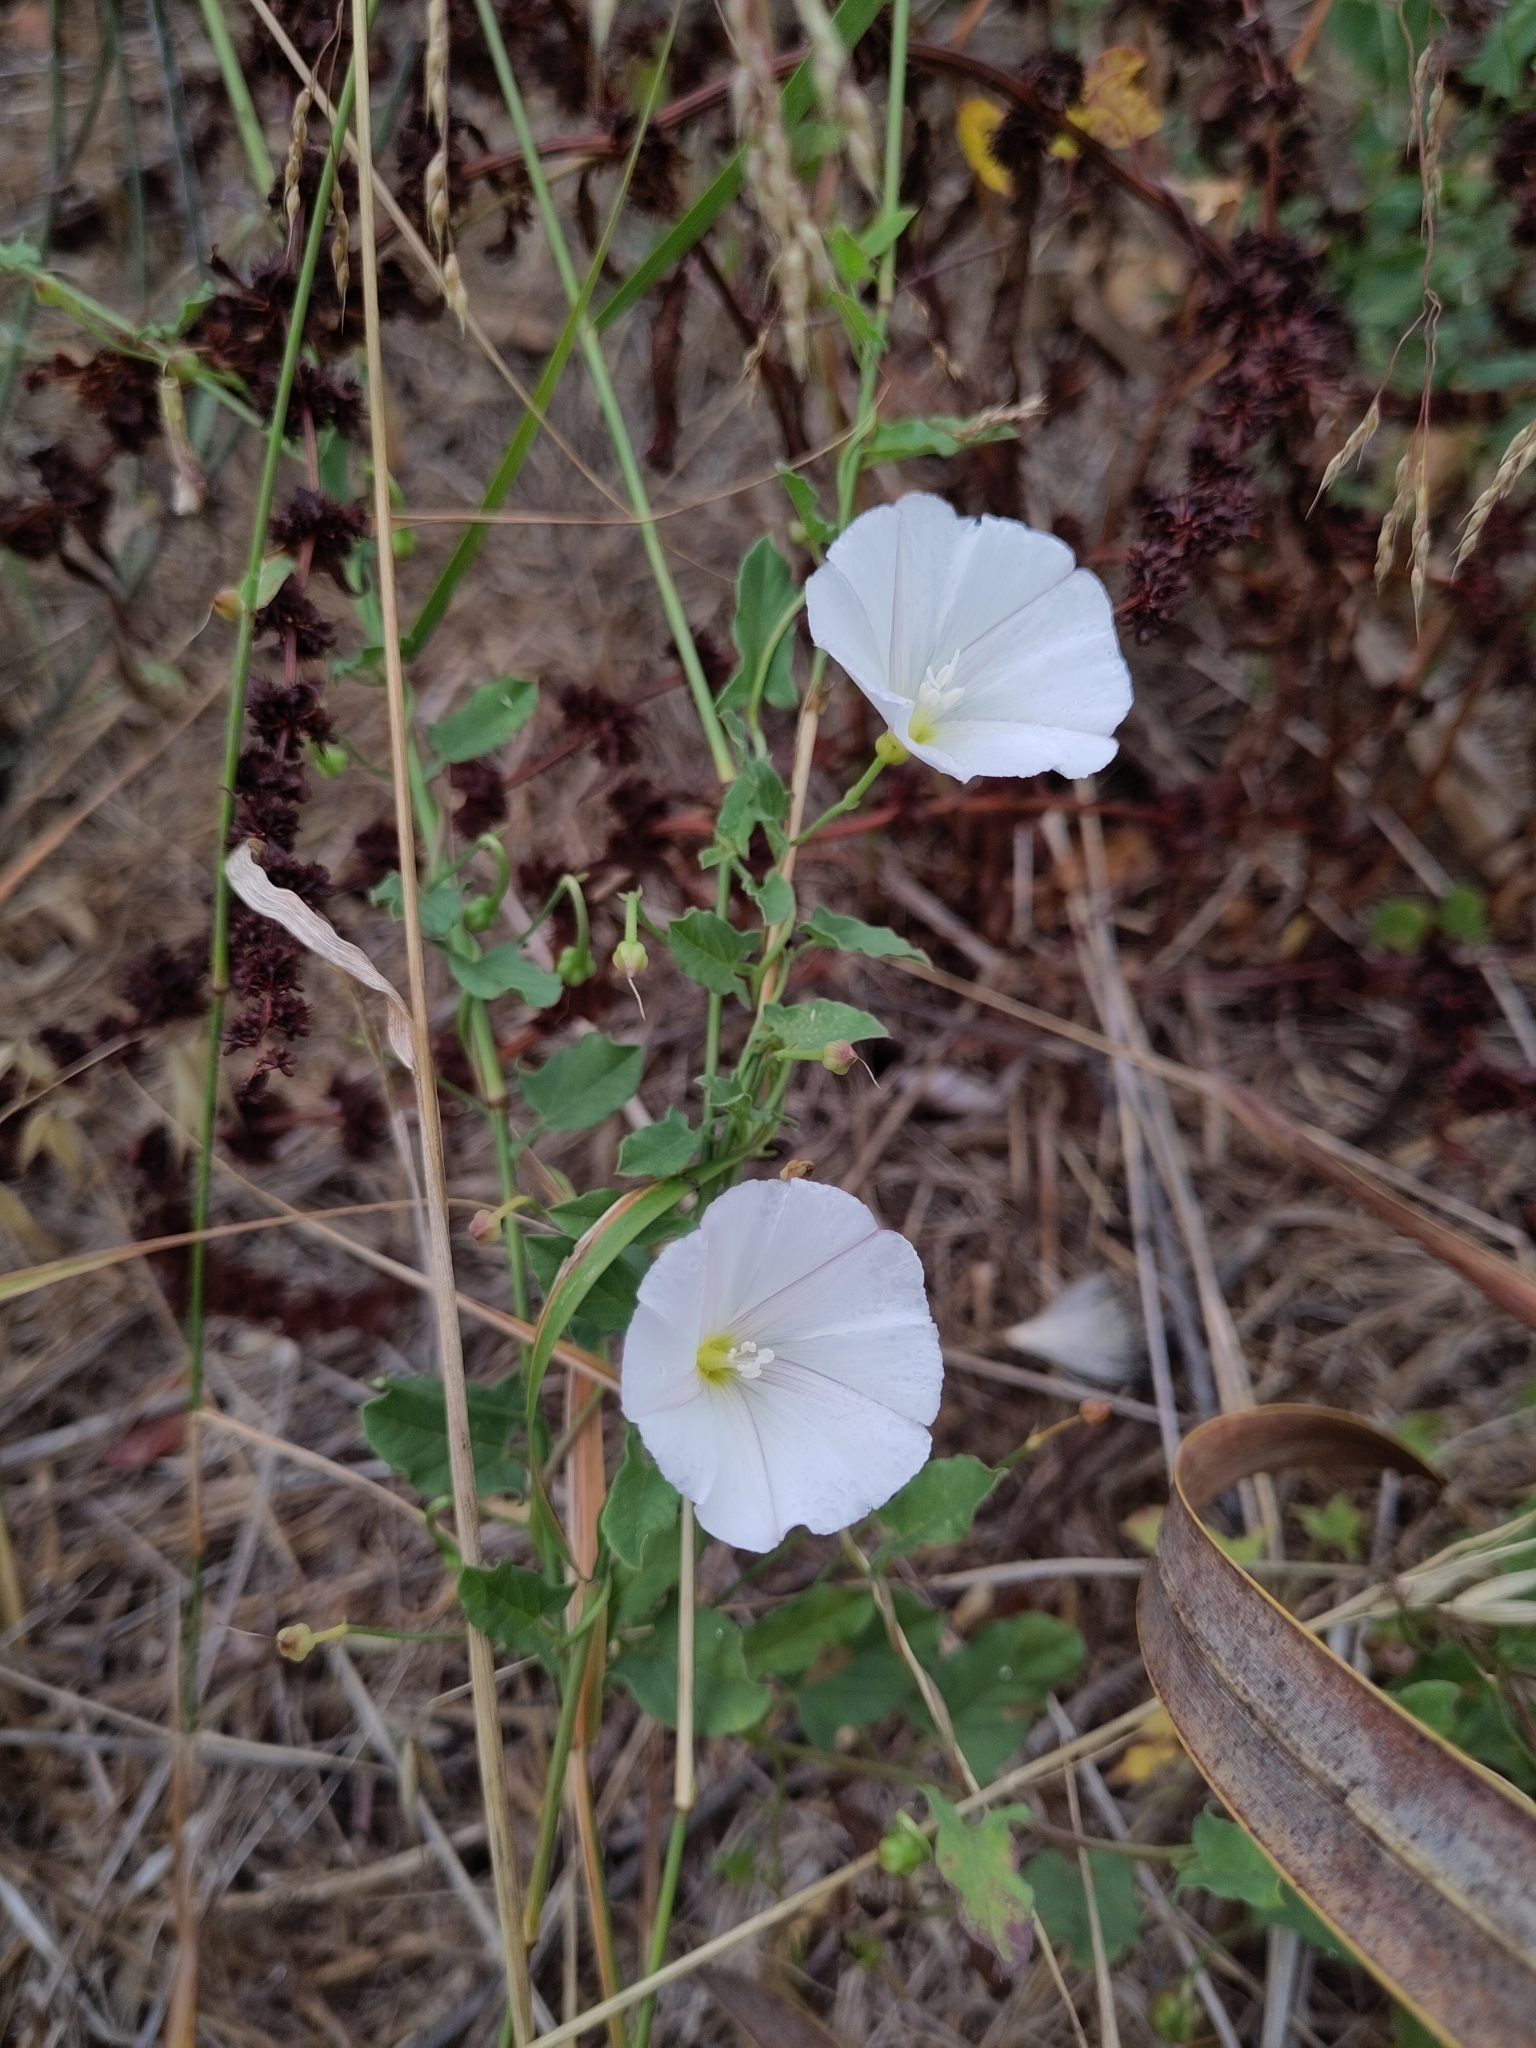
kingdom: Plantae
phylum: Tracheophyta
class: Magnoliopsida
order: Solanales
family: Convolvulaceae
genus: Convolvulus
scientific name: Convolvulus arvensis
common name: Field bindweed
